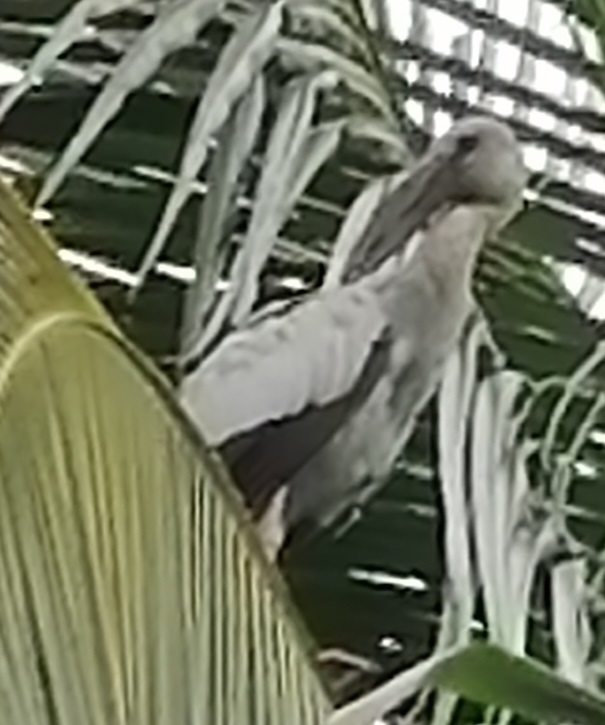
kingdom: Animalia
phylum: Chordata
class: Aves
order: Ciconiiformes
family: Ciconiidae
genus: Anastomus
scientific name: Anastomus oscitans
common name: Asian openbill
